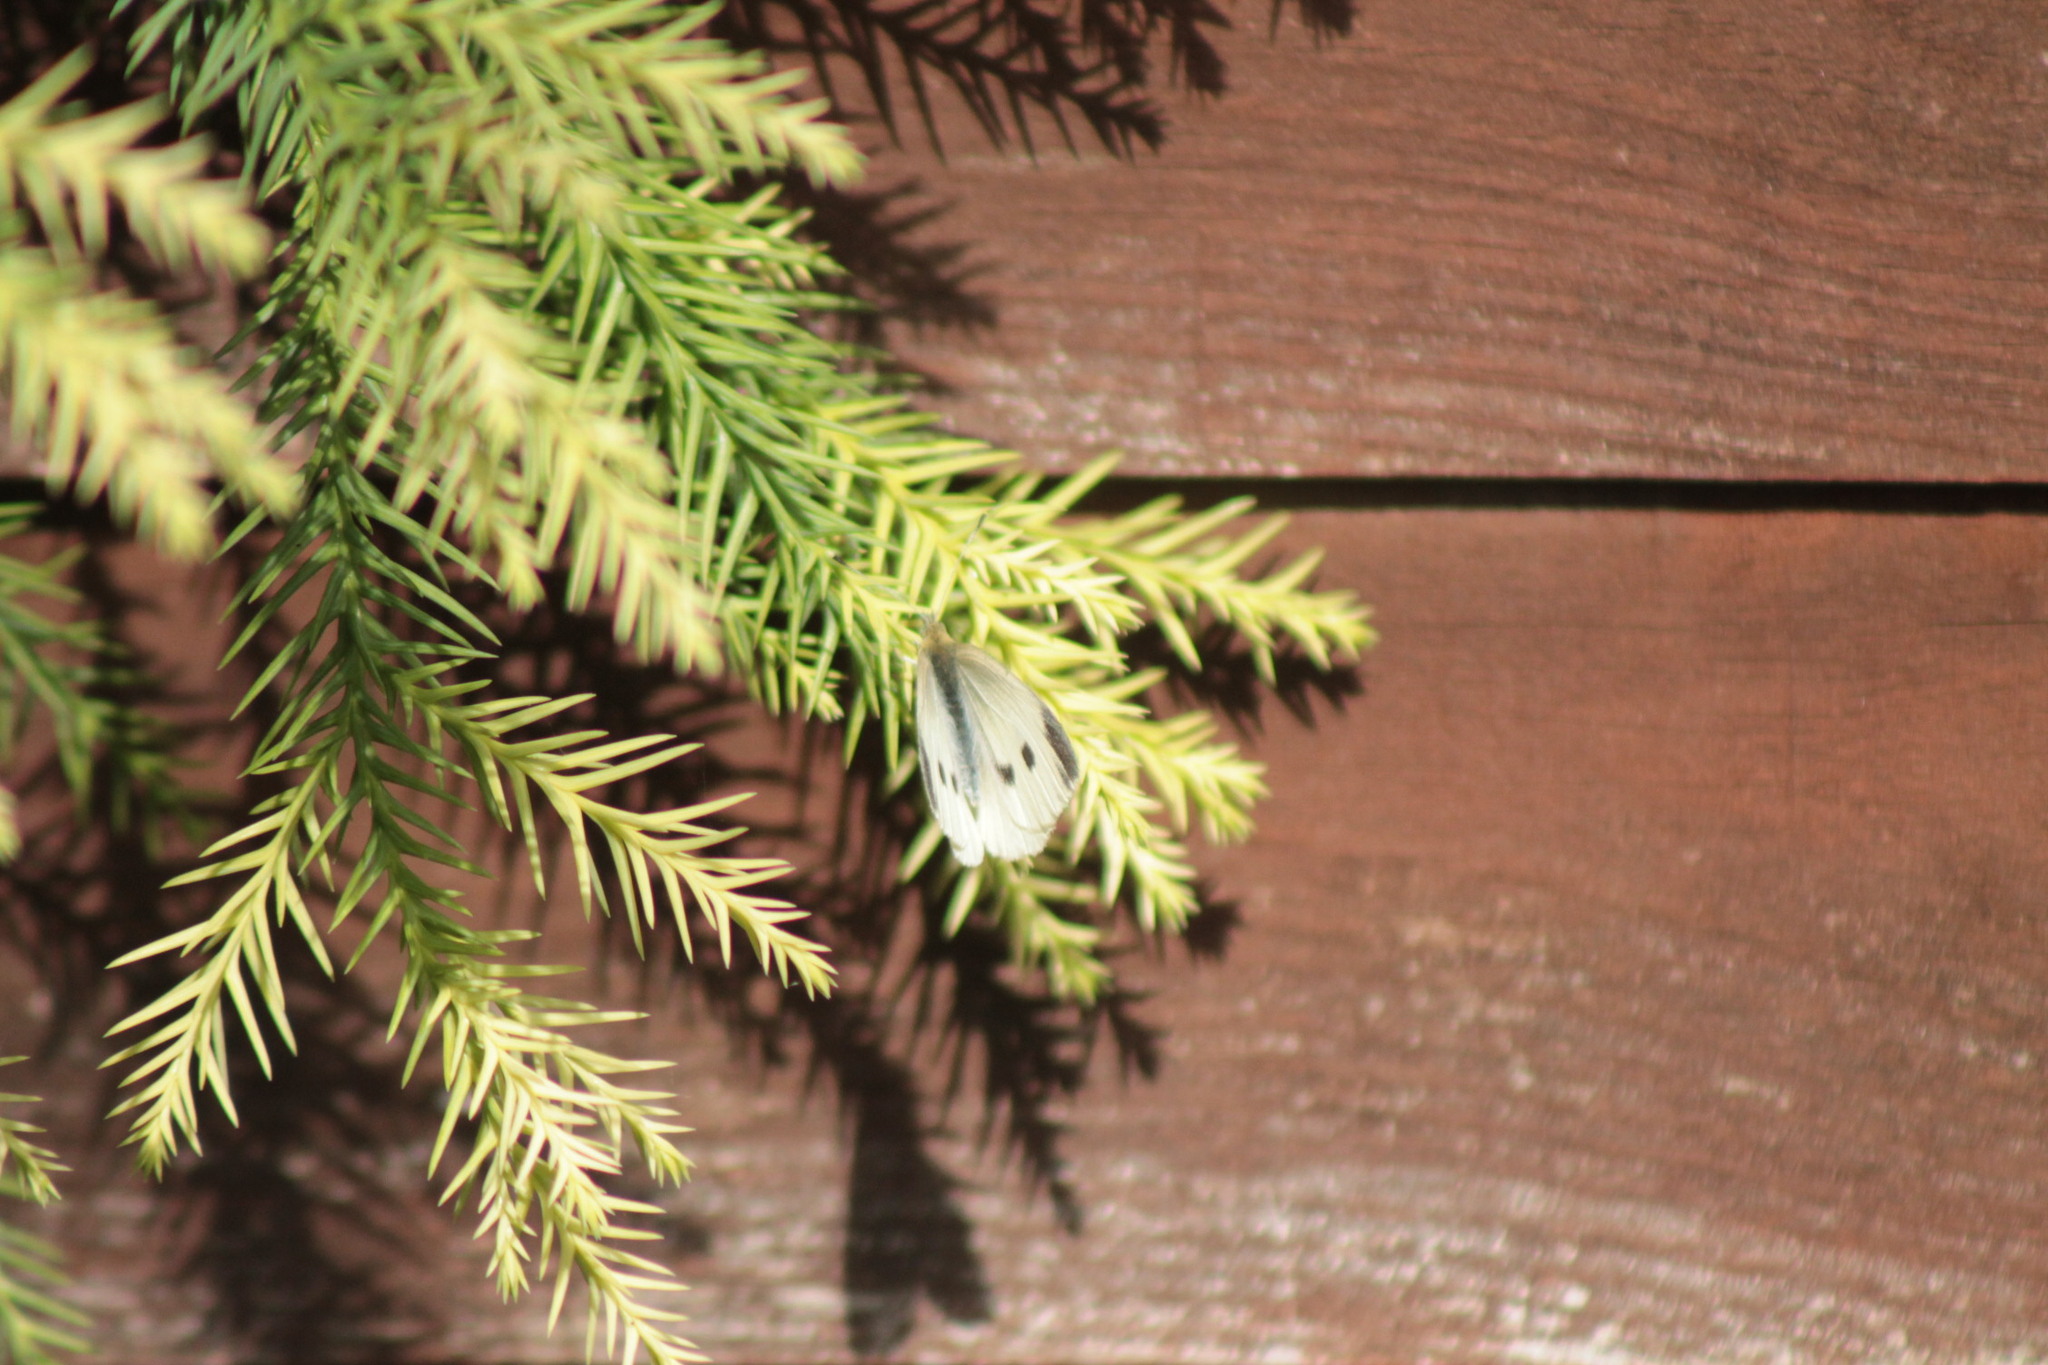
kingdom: Animalia
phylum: Arthropoda
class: Insecta
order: Lepidoptera
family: Pieridae
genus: Pieris
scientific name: Pieris rapae
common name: Small white
